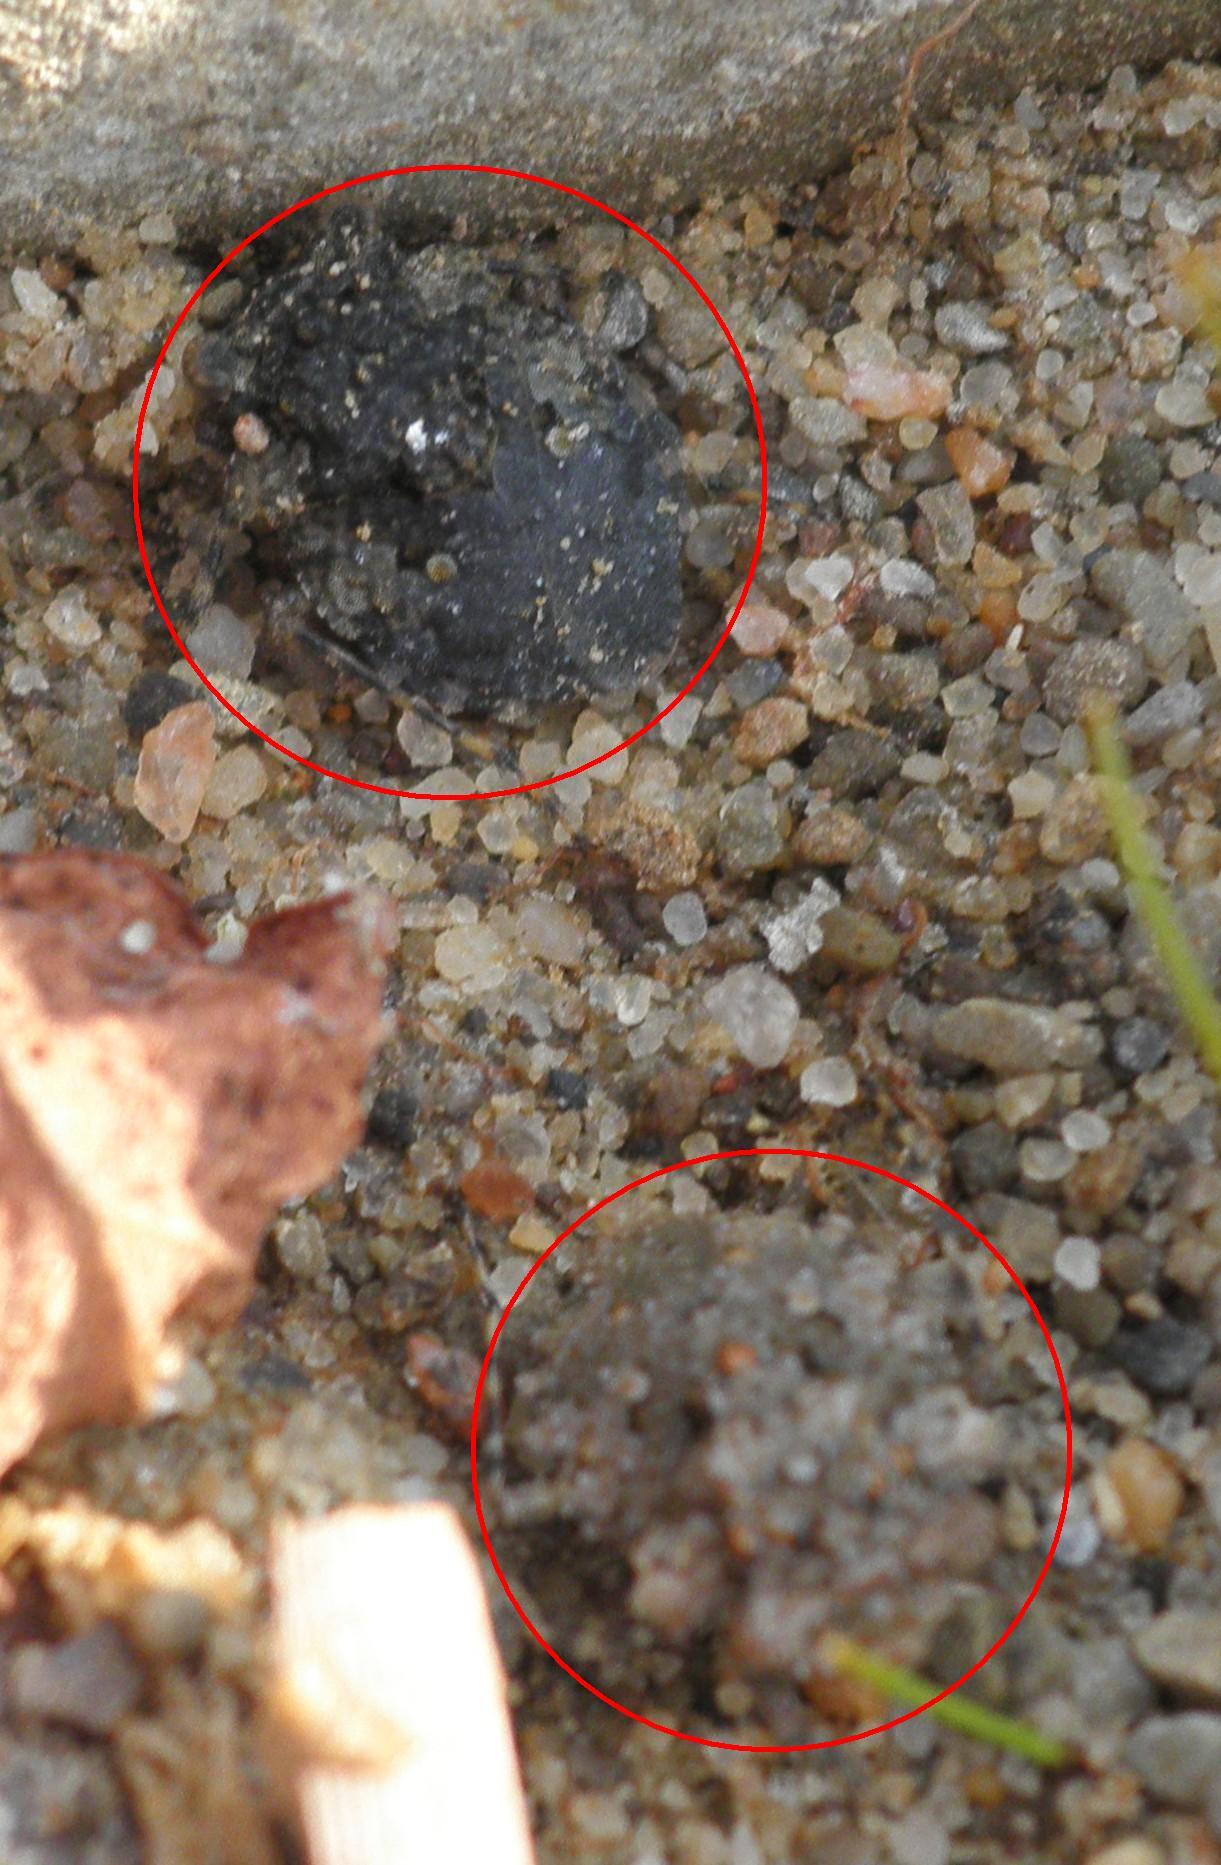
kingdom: Animalia
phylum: Arthropoda
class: Insecta
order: Hemiptera
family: Gelastocoridae
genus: Gelastocoris
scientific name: Gelastocoris oculatus
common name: Toad bug
